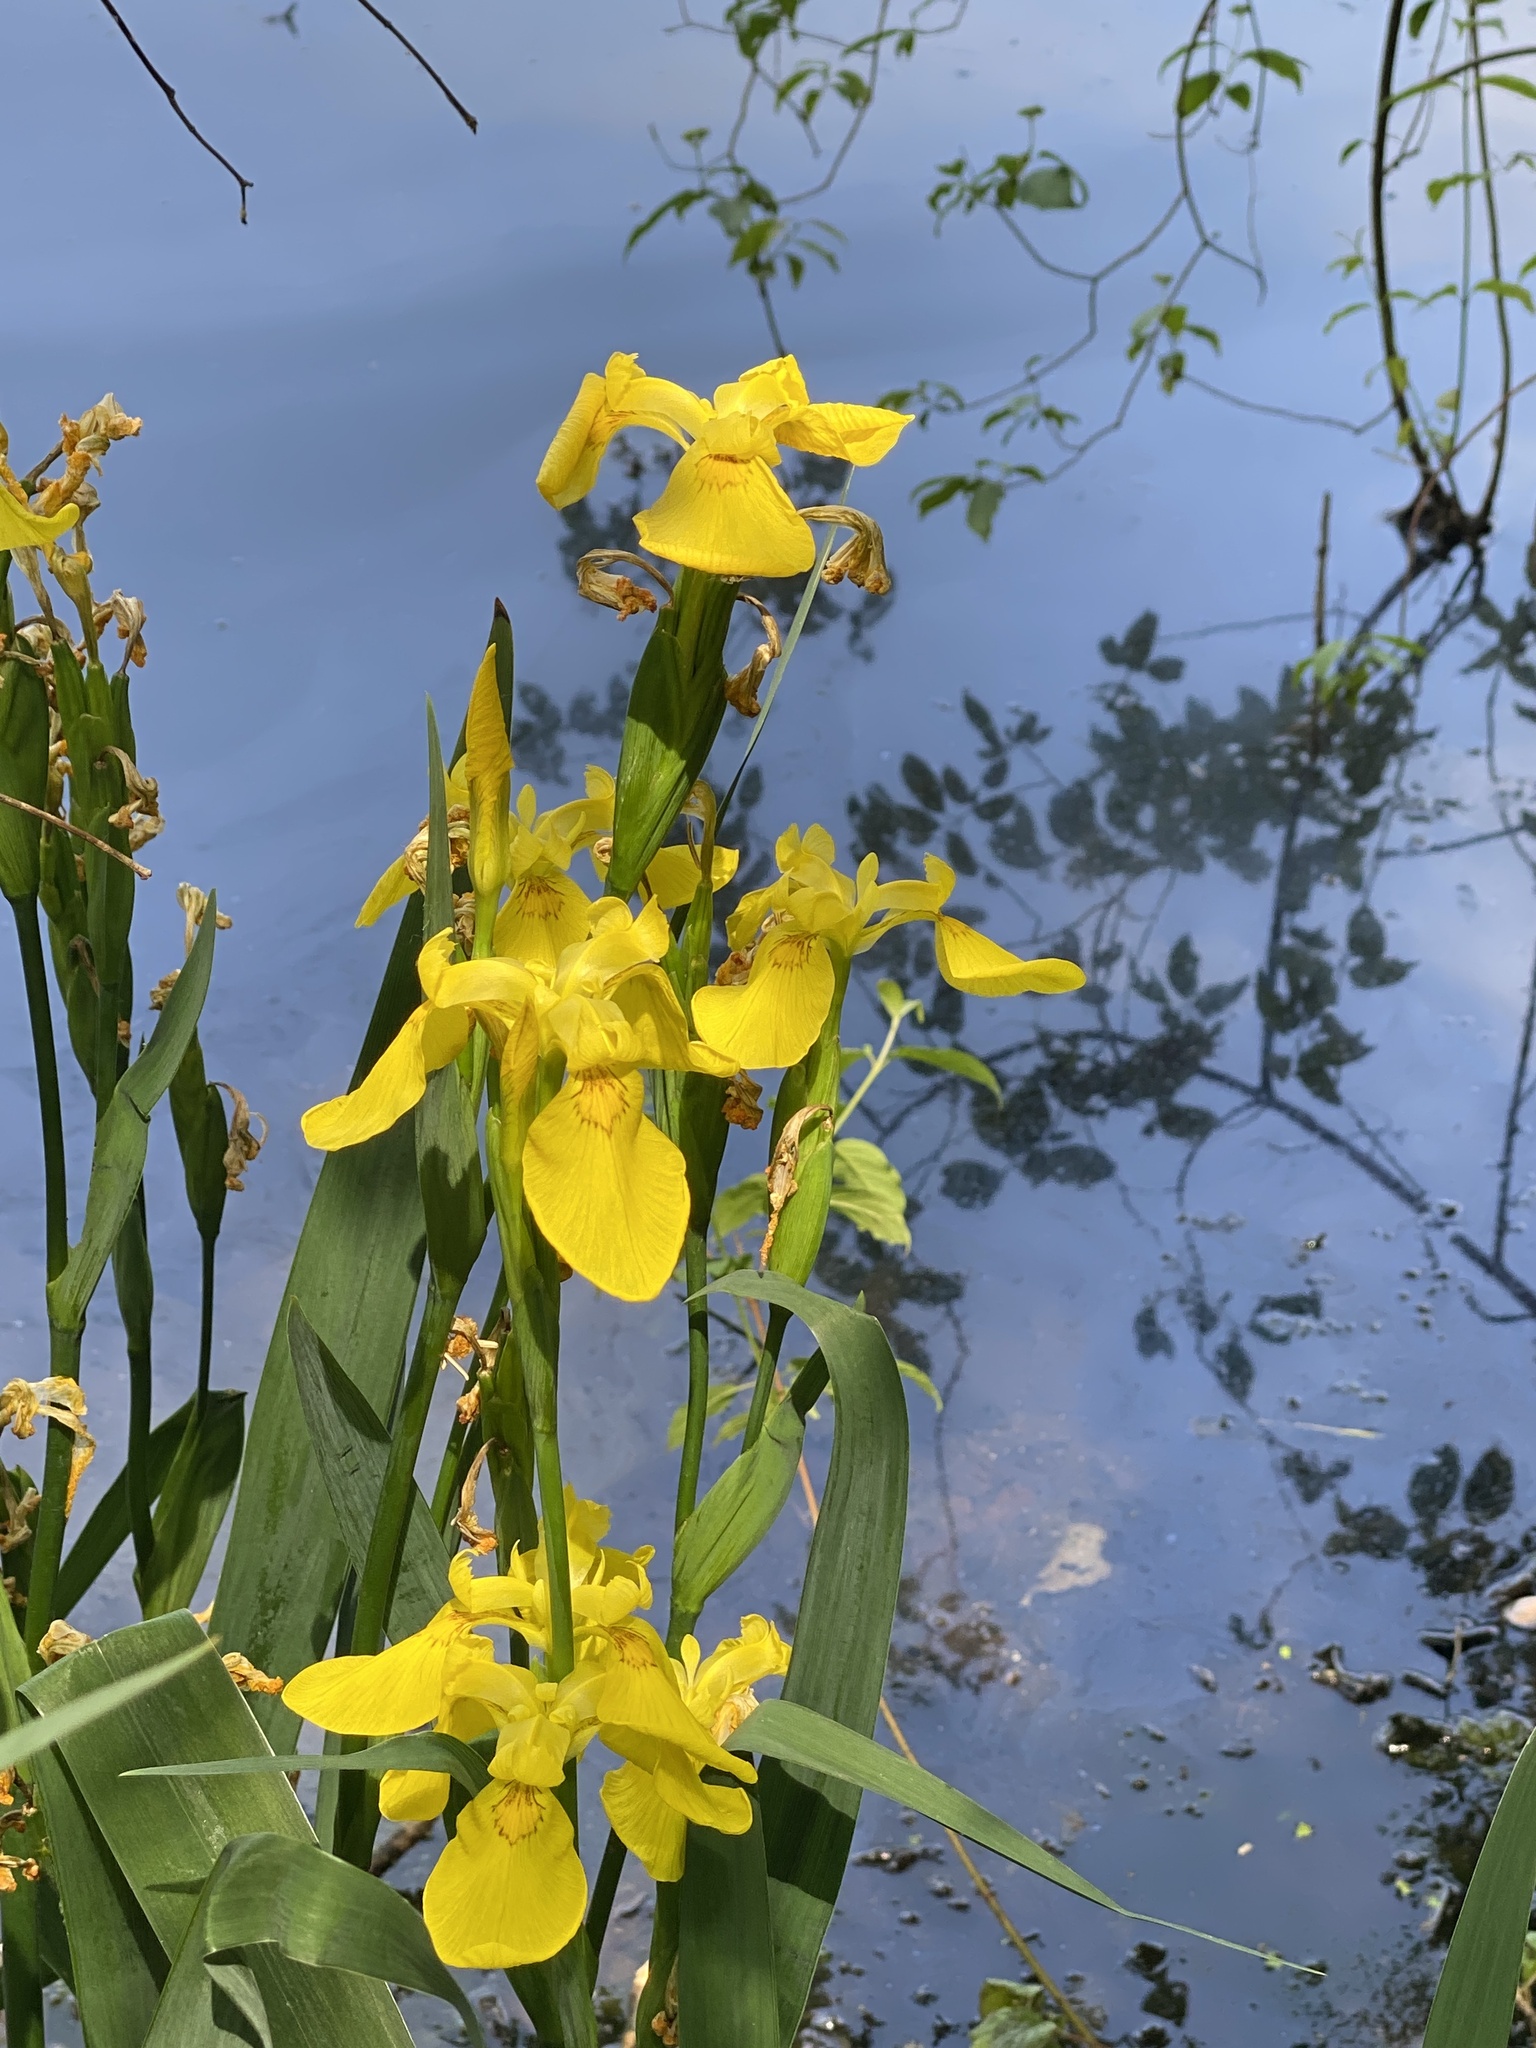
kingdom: Plantae
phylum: Tracheophyta
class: Liliopsida
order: Asparagales
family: Iridaceae
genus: Iris
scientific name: Iris pseudacorus
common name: Yellow flag
